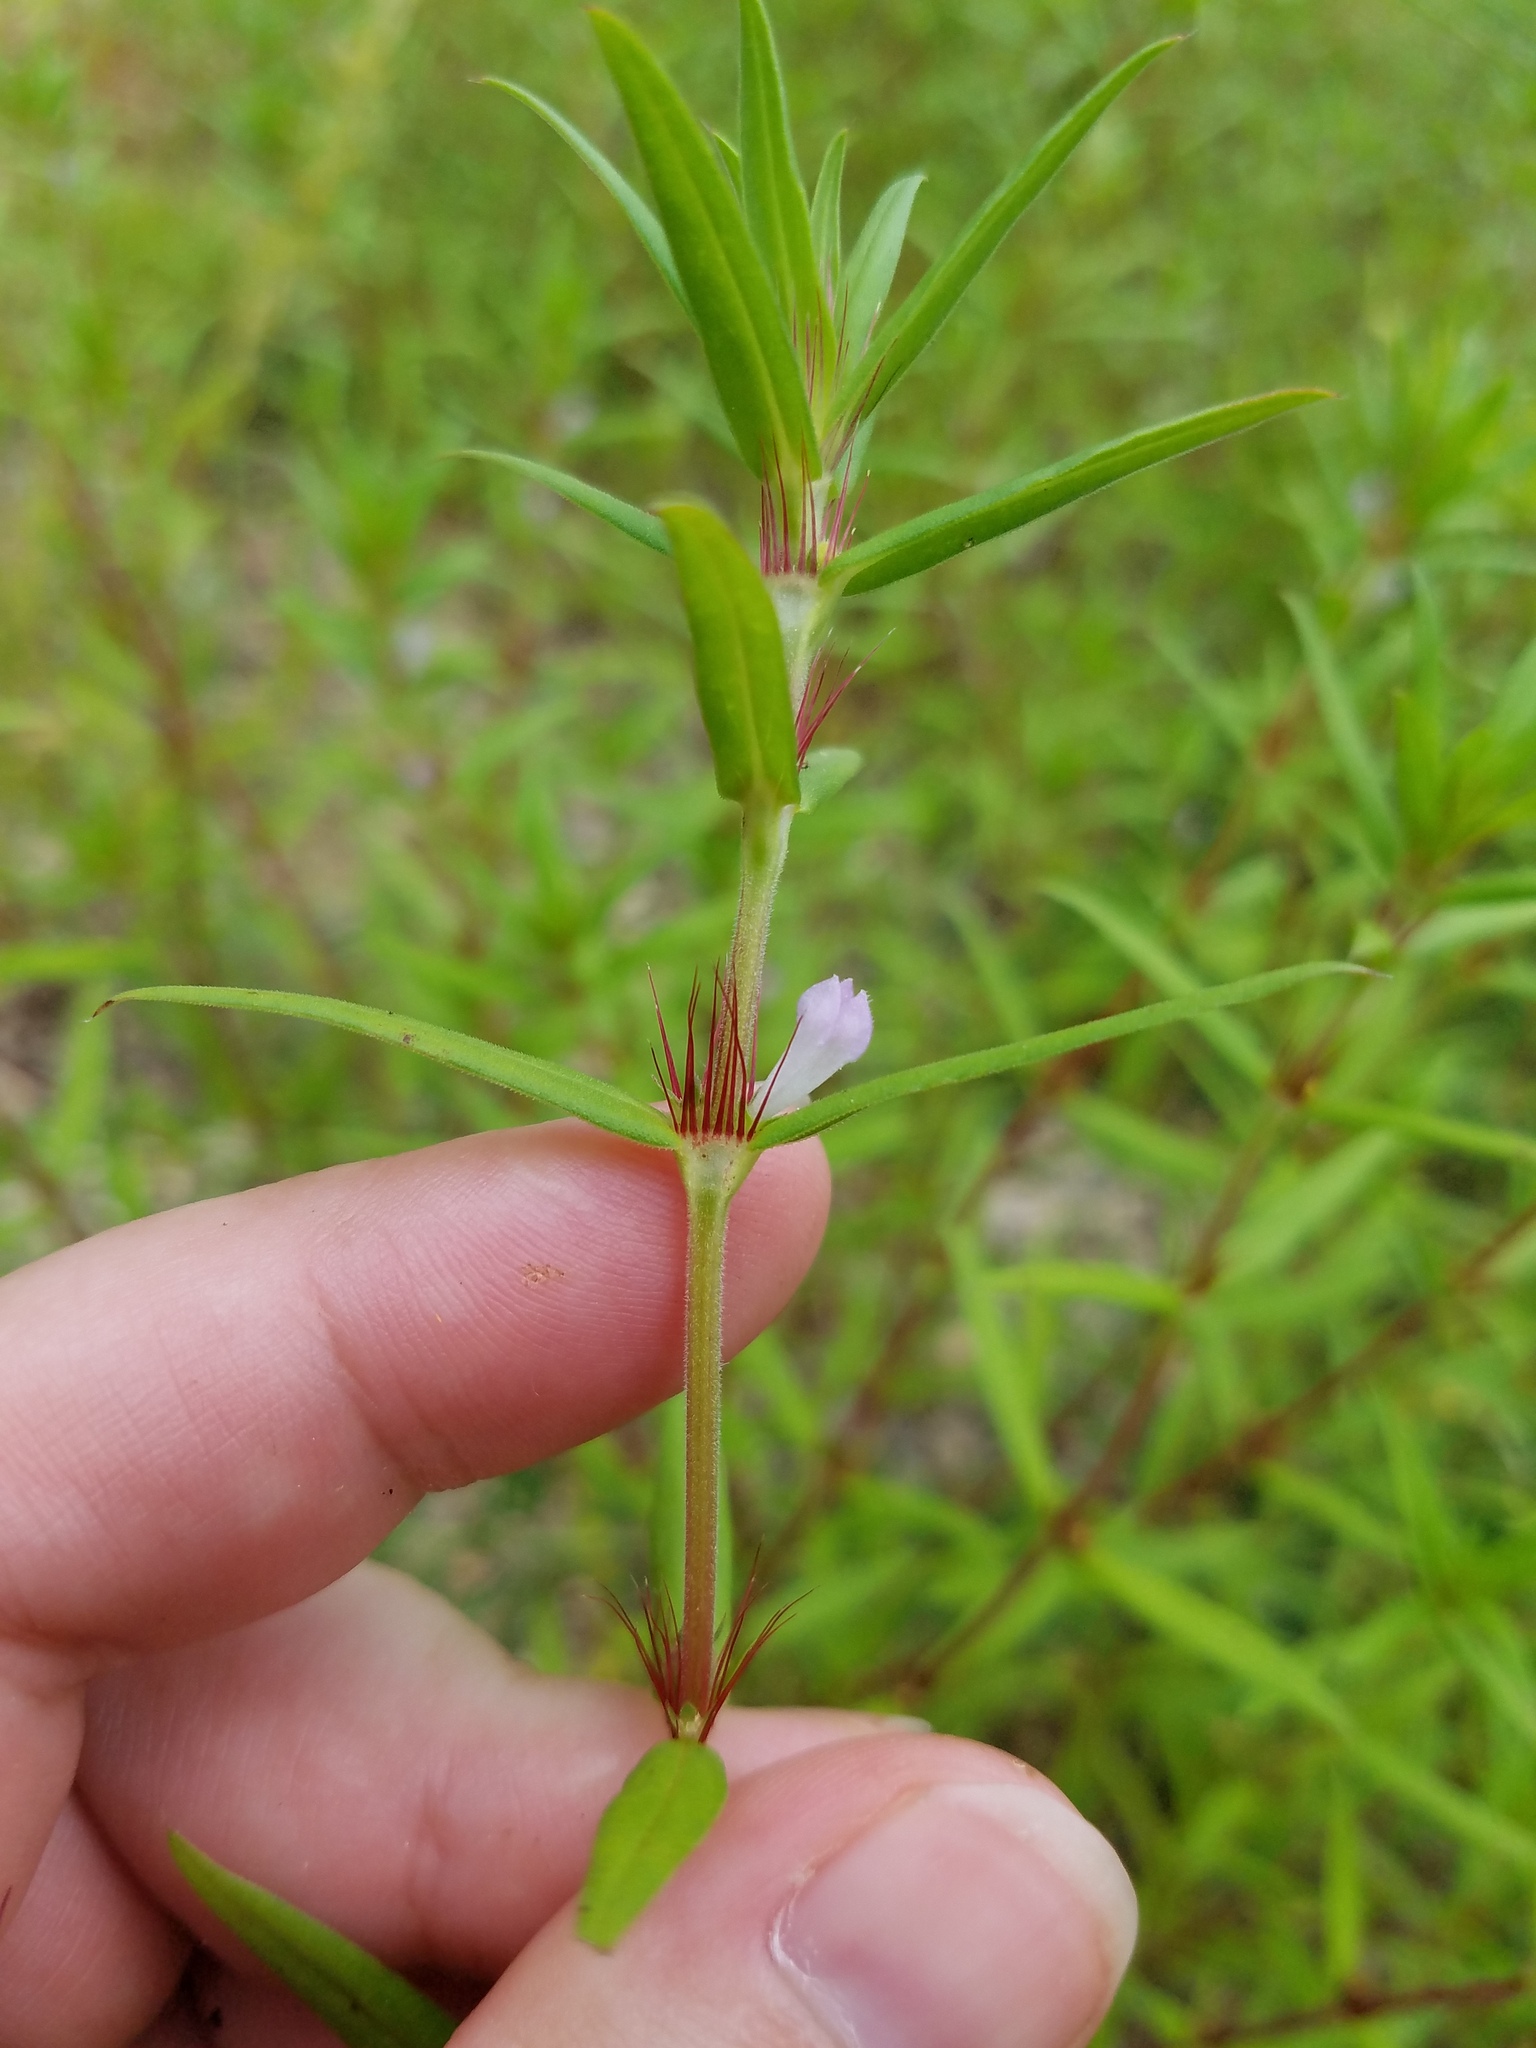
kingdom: Plantae
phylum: Tracheophyta
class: Magnoliopsida
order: Gentianales
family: Rubiaceae
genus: Hexasepalum
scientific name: Hexasepalum teres
